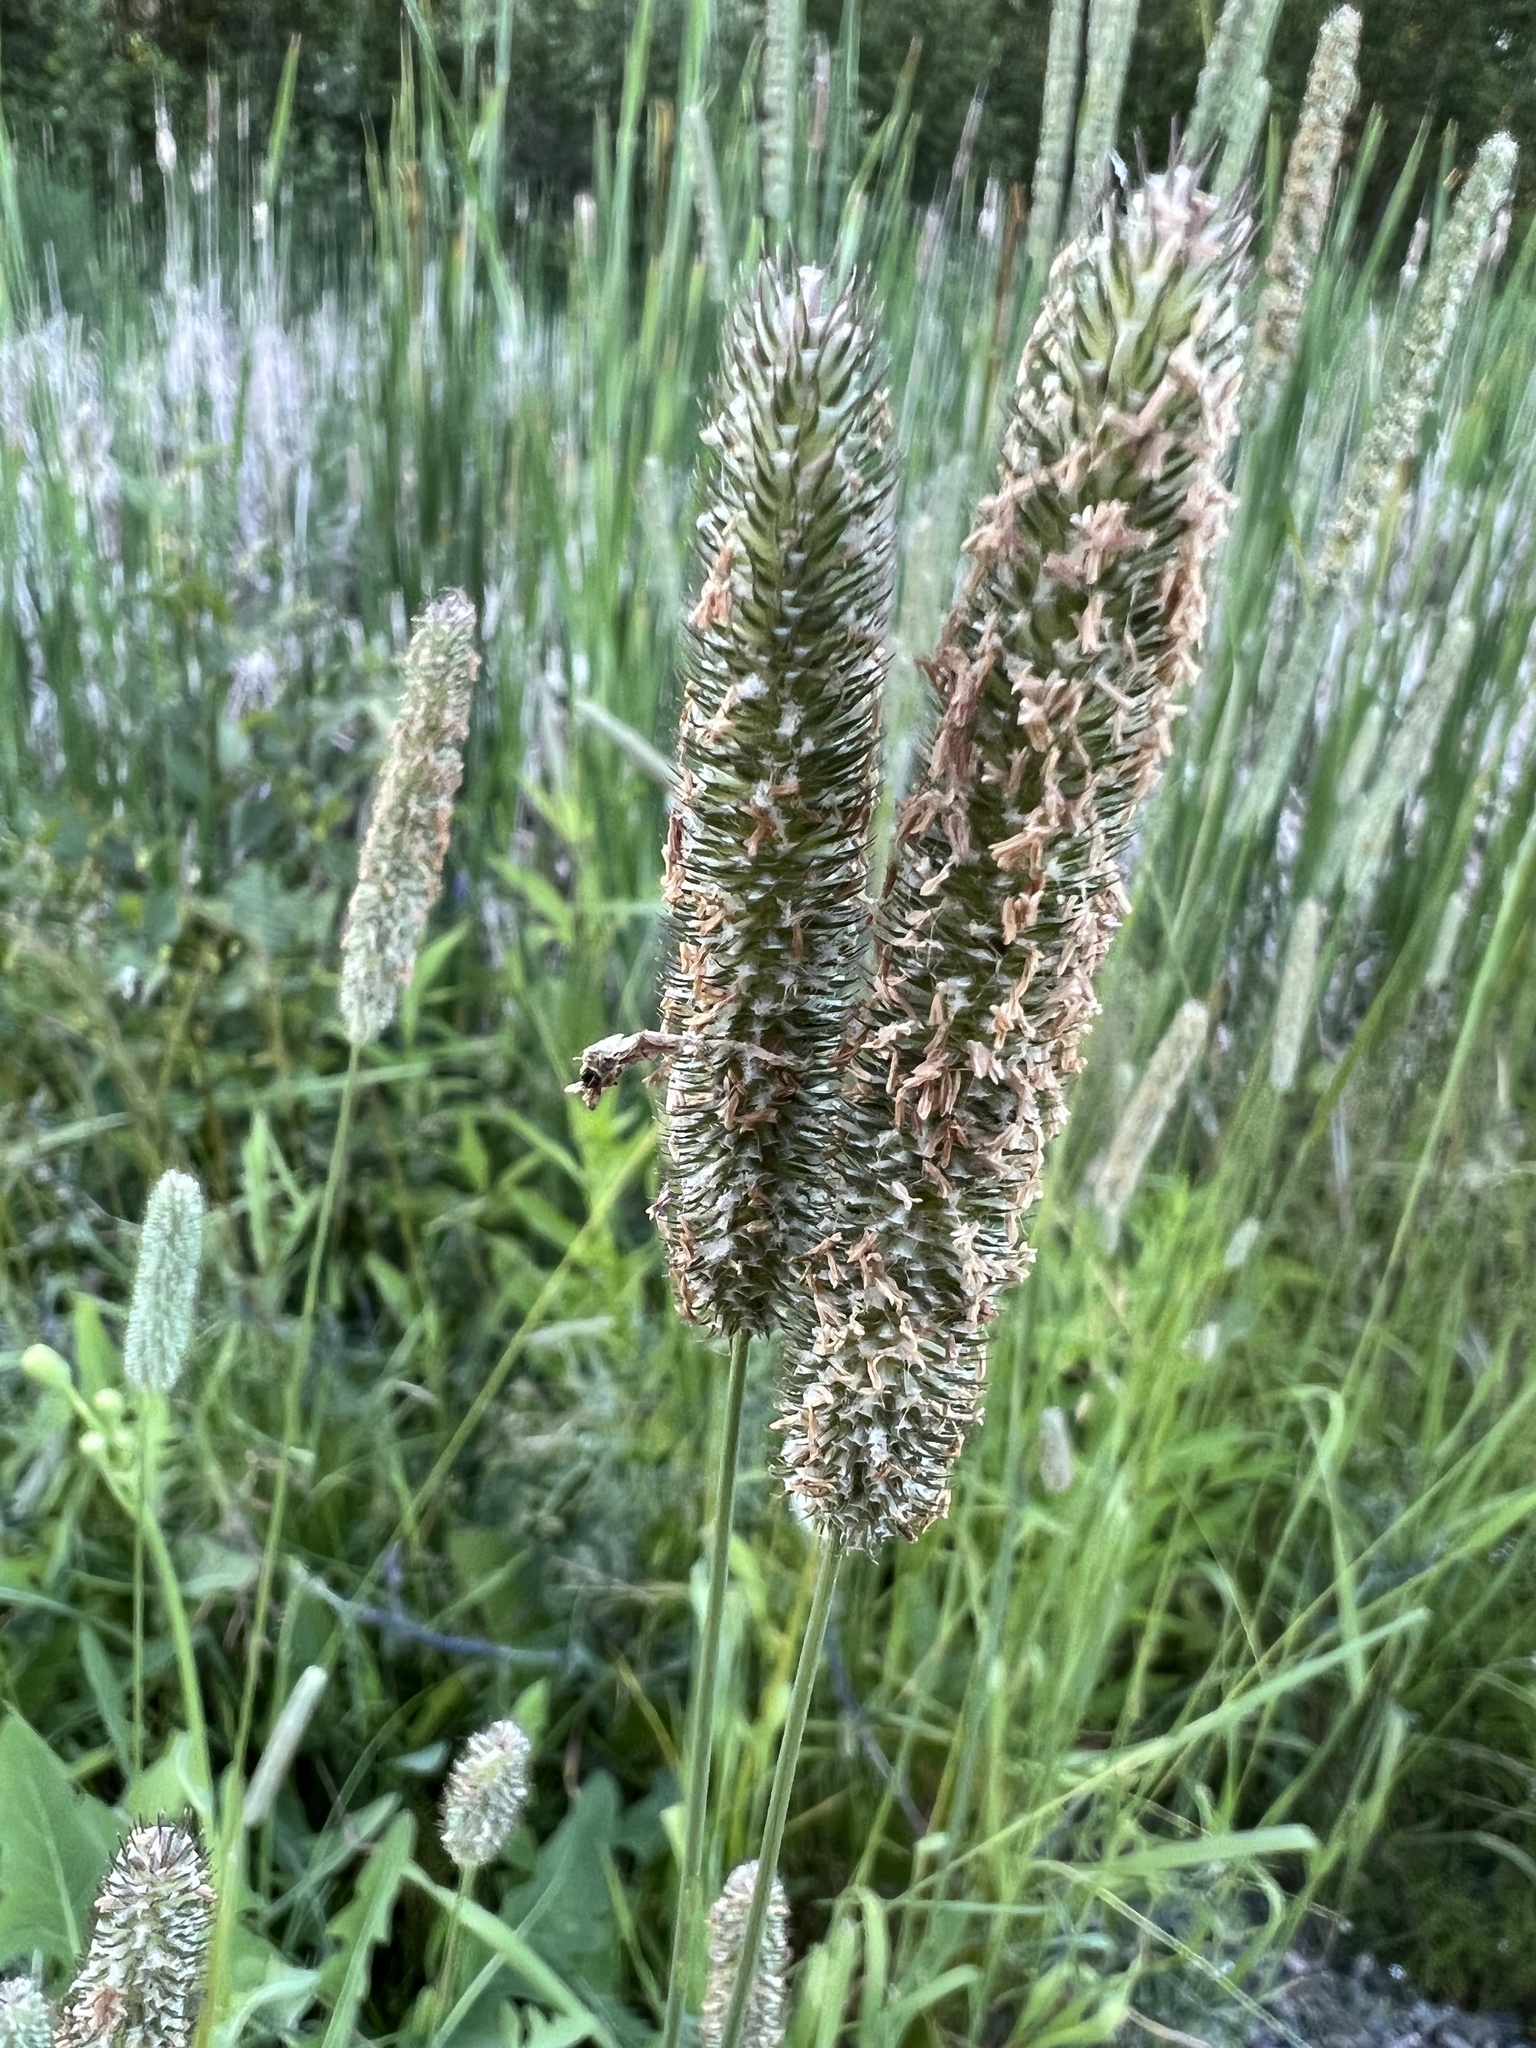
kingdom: Plantae
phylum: Tracheophyta
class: Liliopsida
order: Poales
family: Poaceae
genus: Phleum
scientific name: Phleum pratense
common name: Timothy grass
